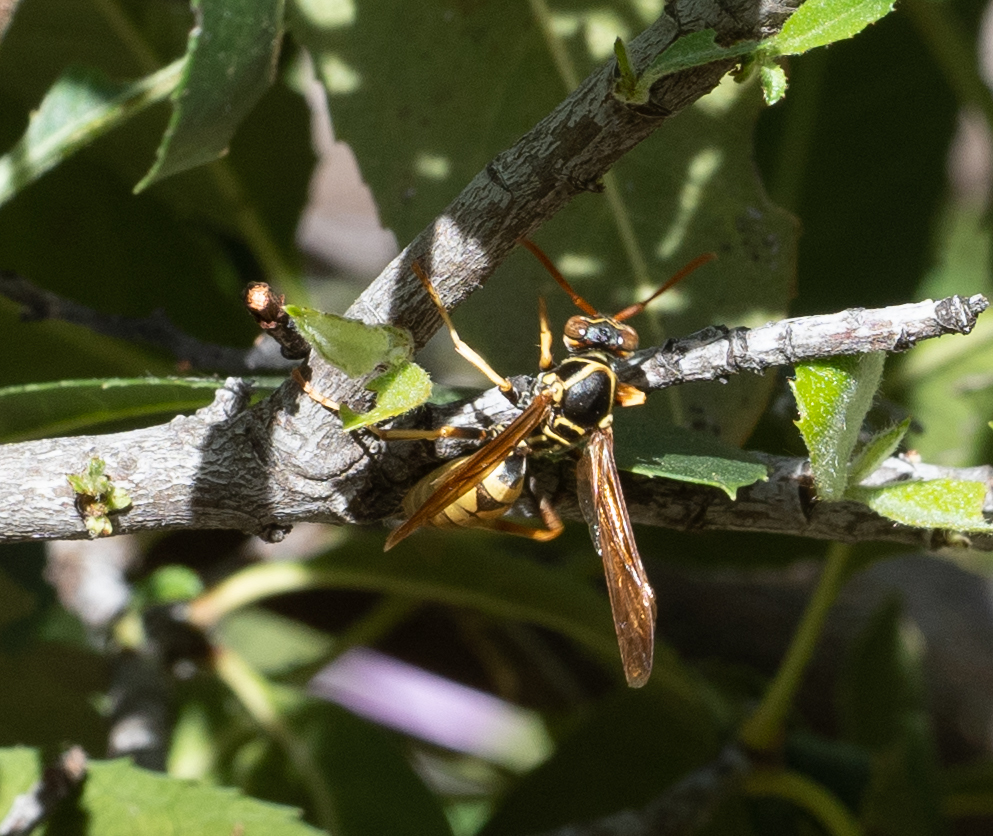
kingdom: Animalia
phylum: Arthropoda
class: Insecta
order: Hymenoptera
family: Eumenidae
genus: Polistes
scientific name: Polistes aurifer
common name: Paper wasp
